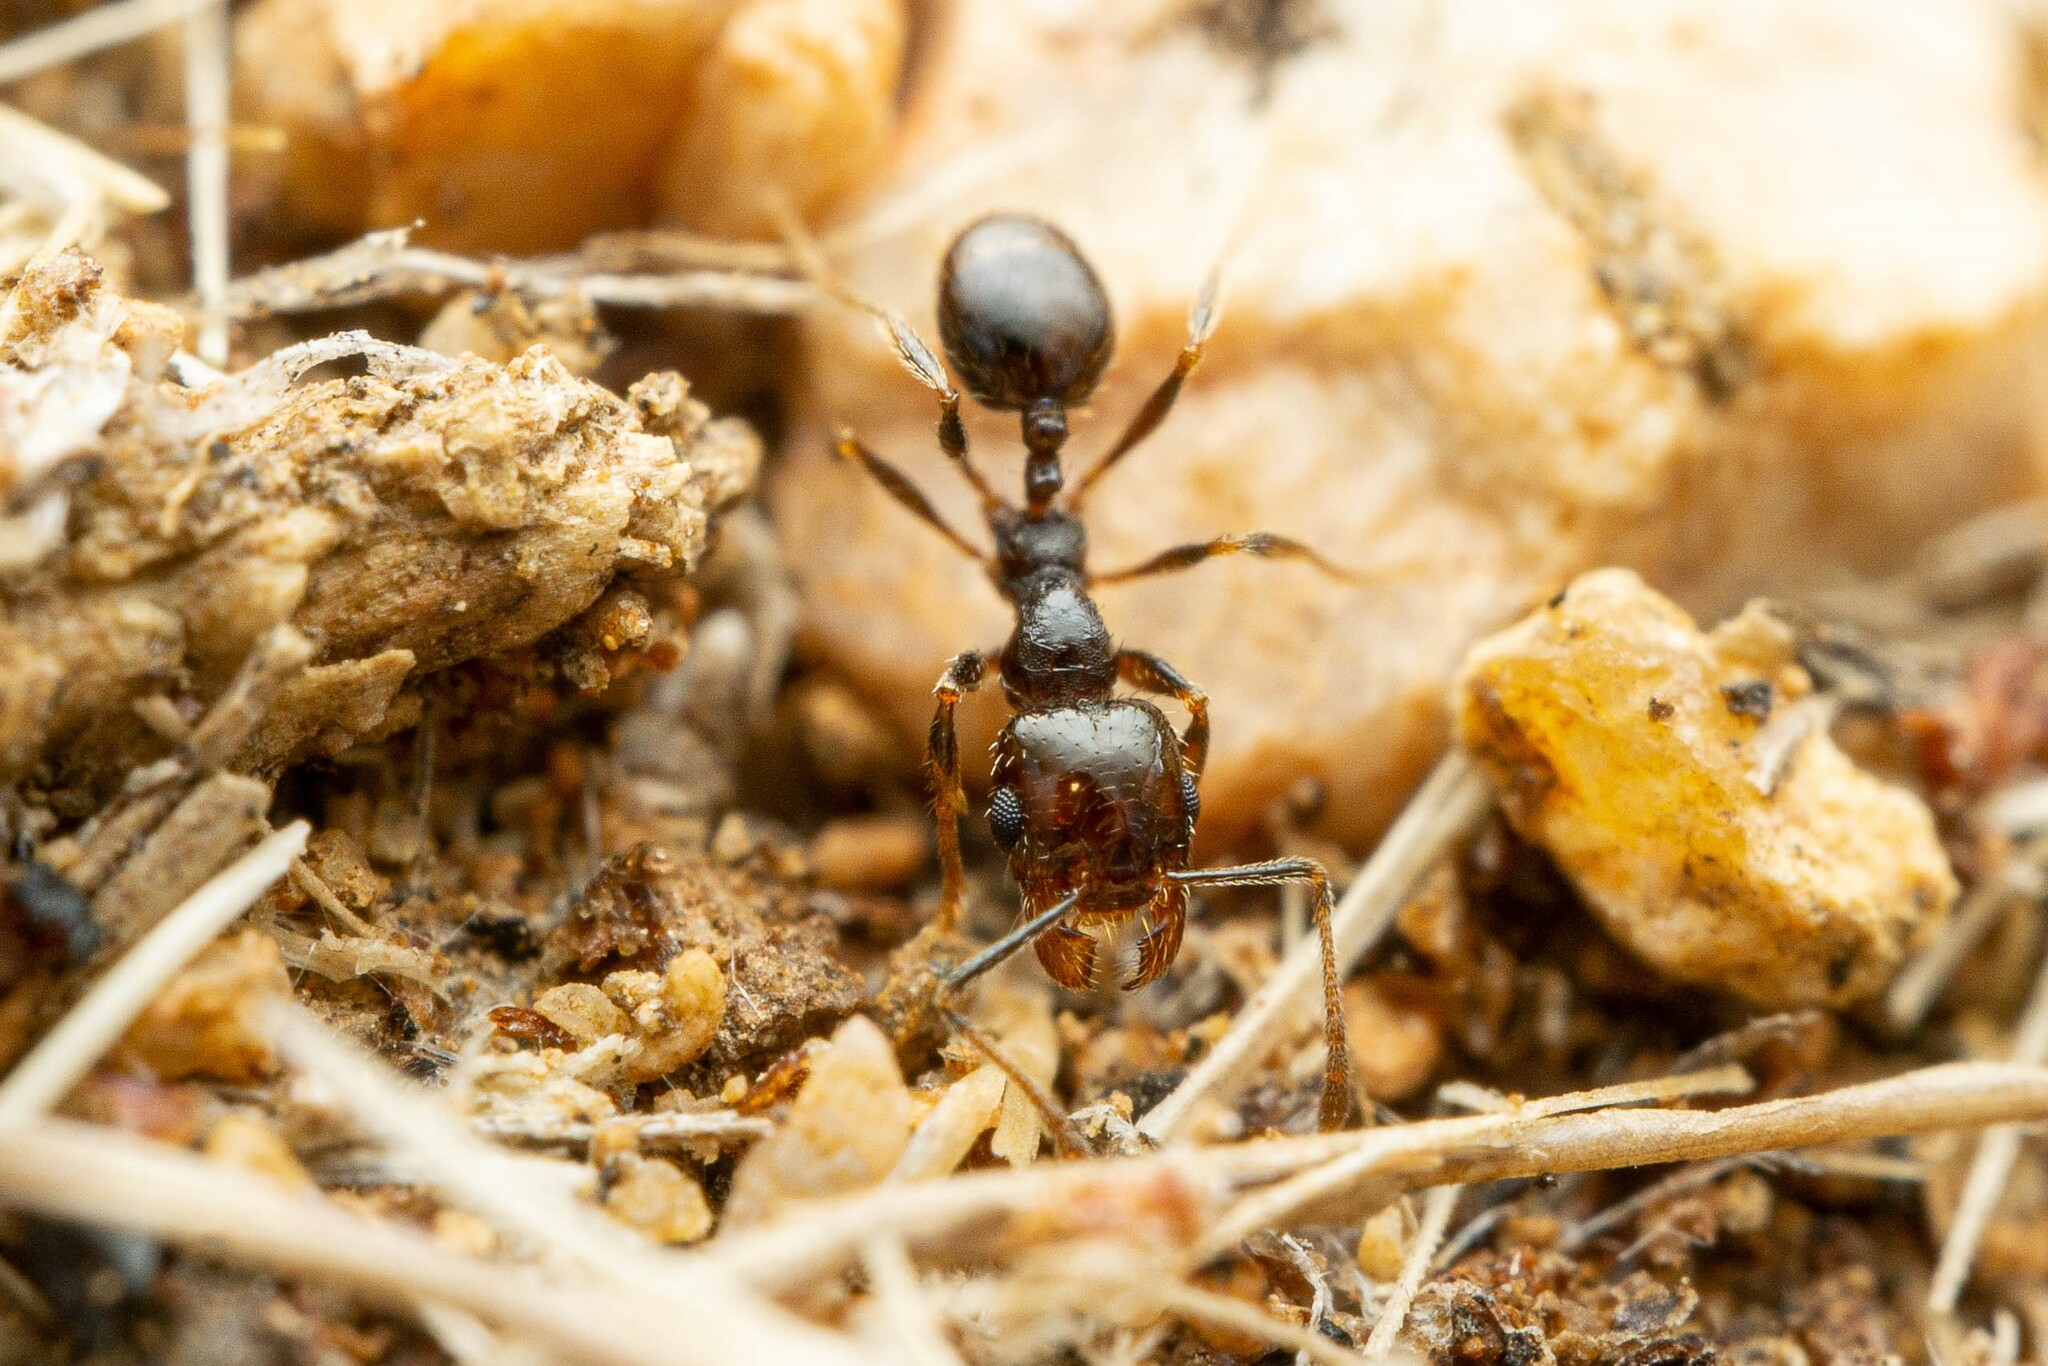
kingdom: Animalia
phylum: Arthropoda
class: Insecta
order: Hymenoptera
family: Formicidae
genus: Pheidole
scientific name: Pheidole xerophila
